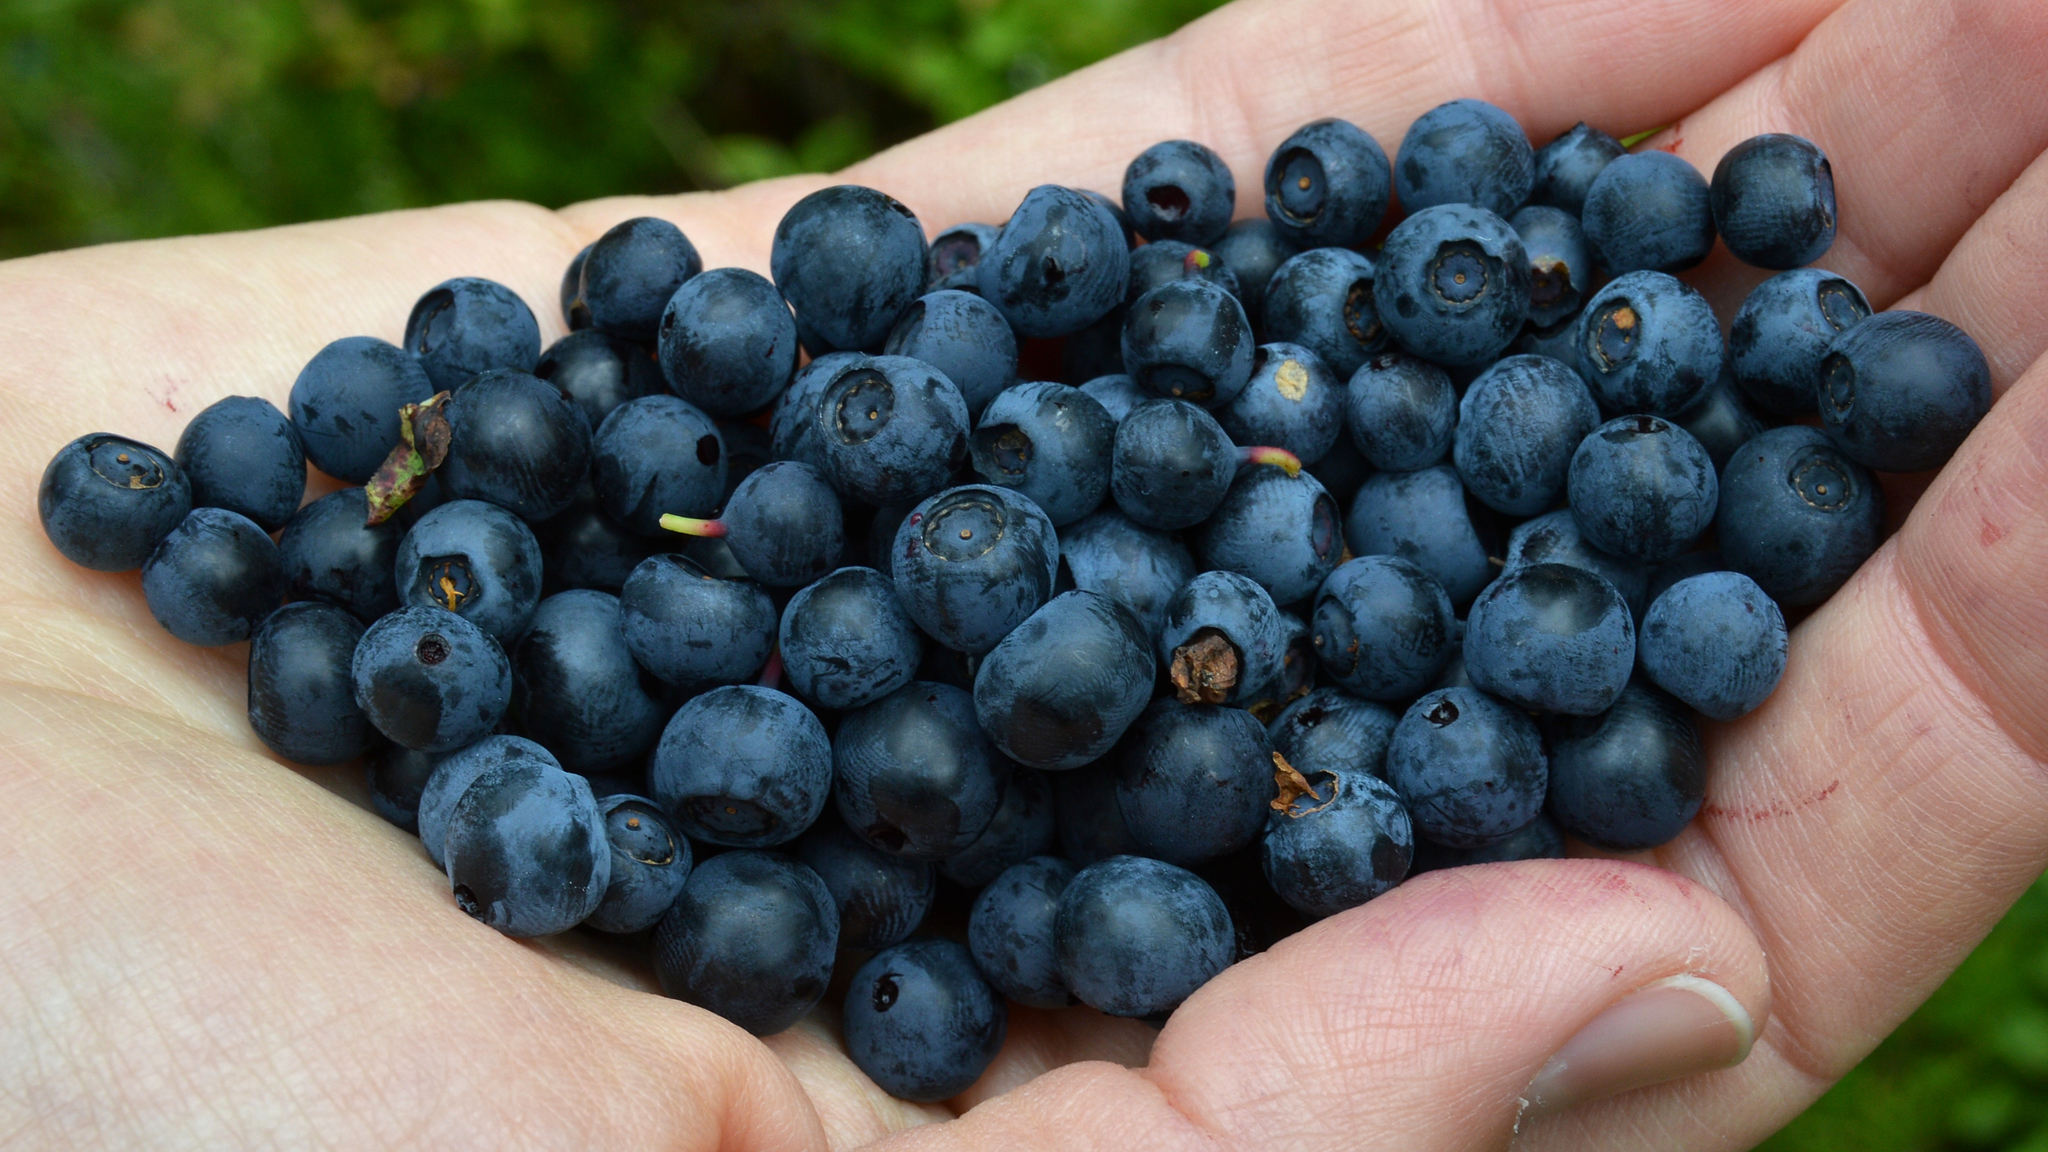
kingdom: Plantae
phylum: Tracheophyta
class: Magnoliopsida
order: Ericales
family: Ericaceae
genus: Vaccinium
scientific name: Vaccinium myrtillus
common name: Bilberry
